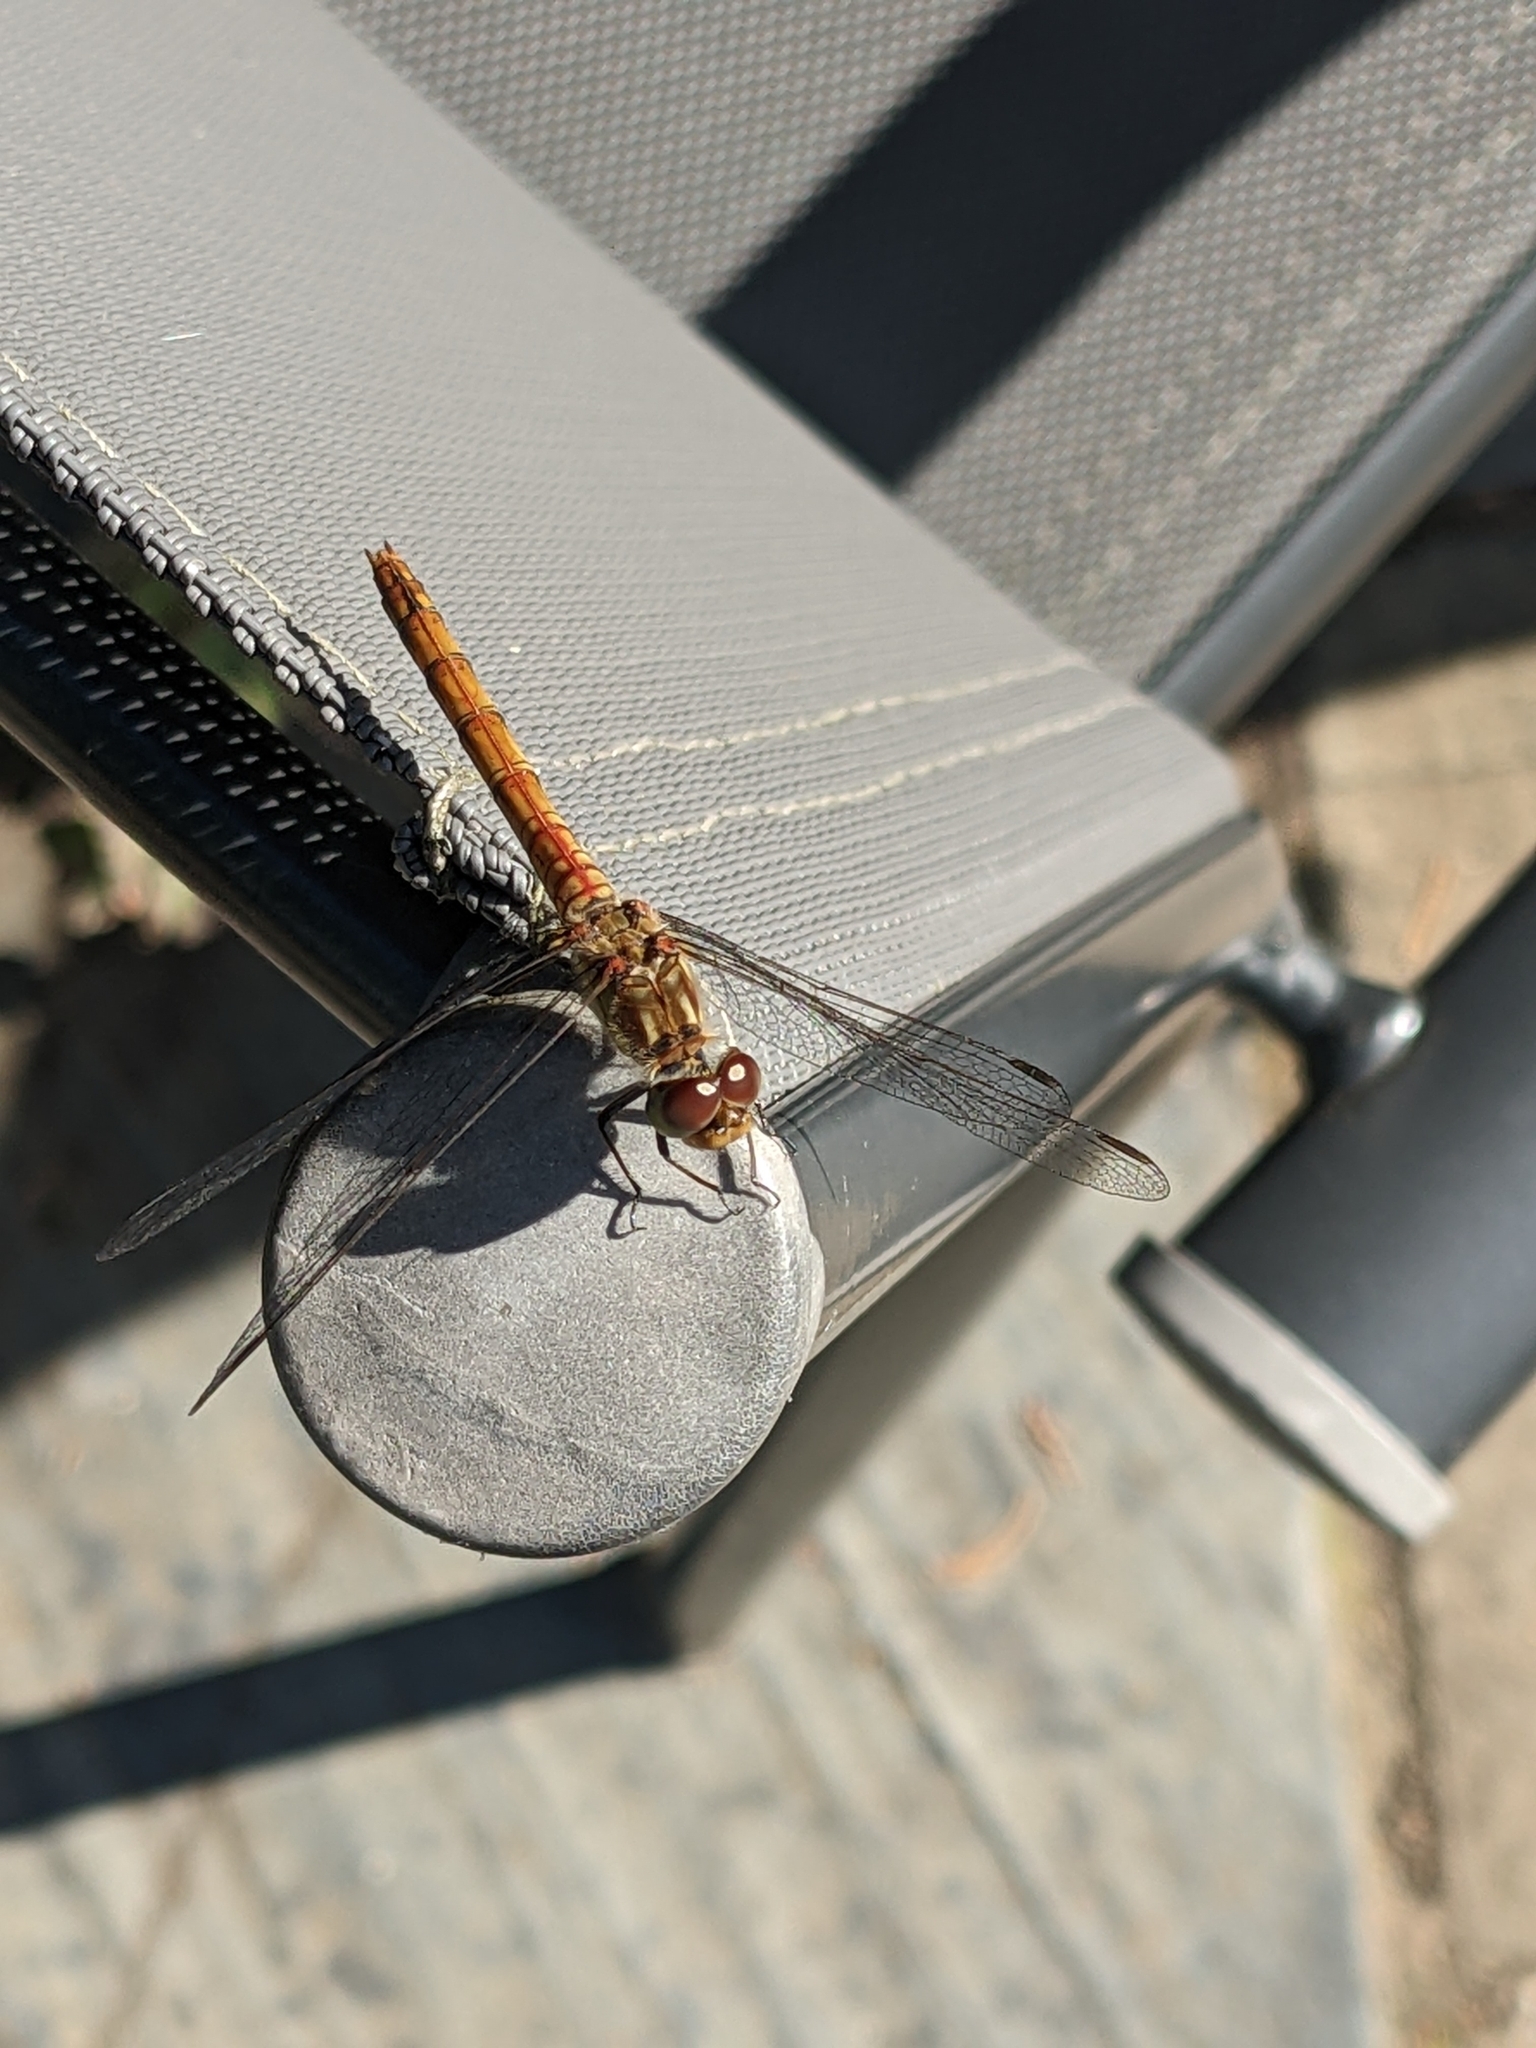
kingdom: Animalia
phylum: Arthropoda
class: Insecta
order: Odonata
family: Libellulidae
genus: Sympetrum
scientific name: Sympetrum striolatum
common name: Common darter
